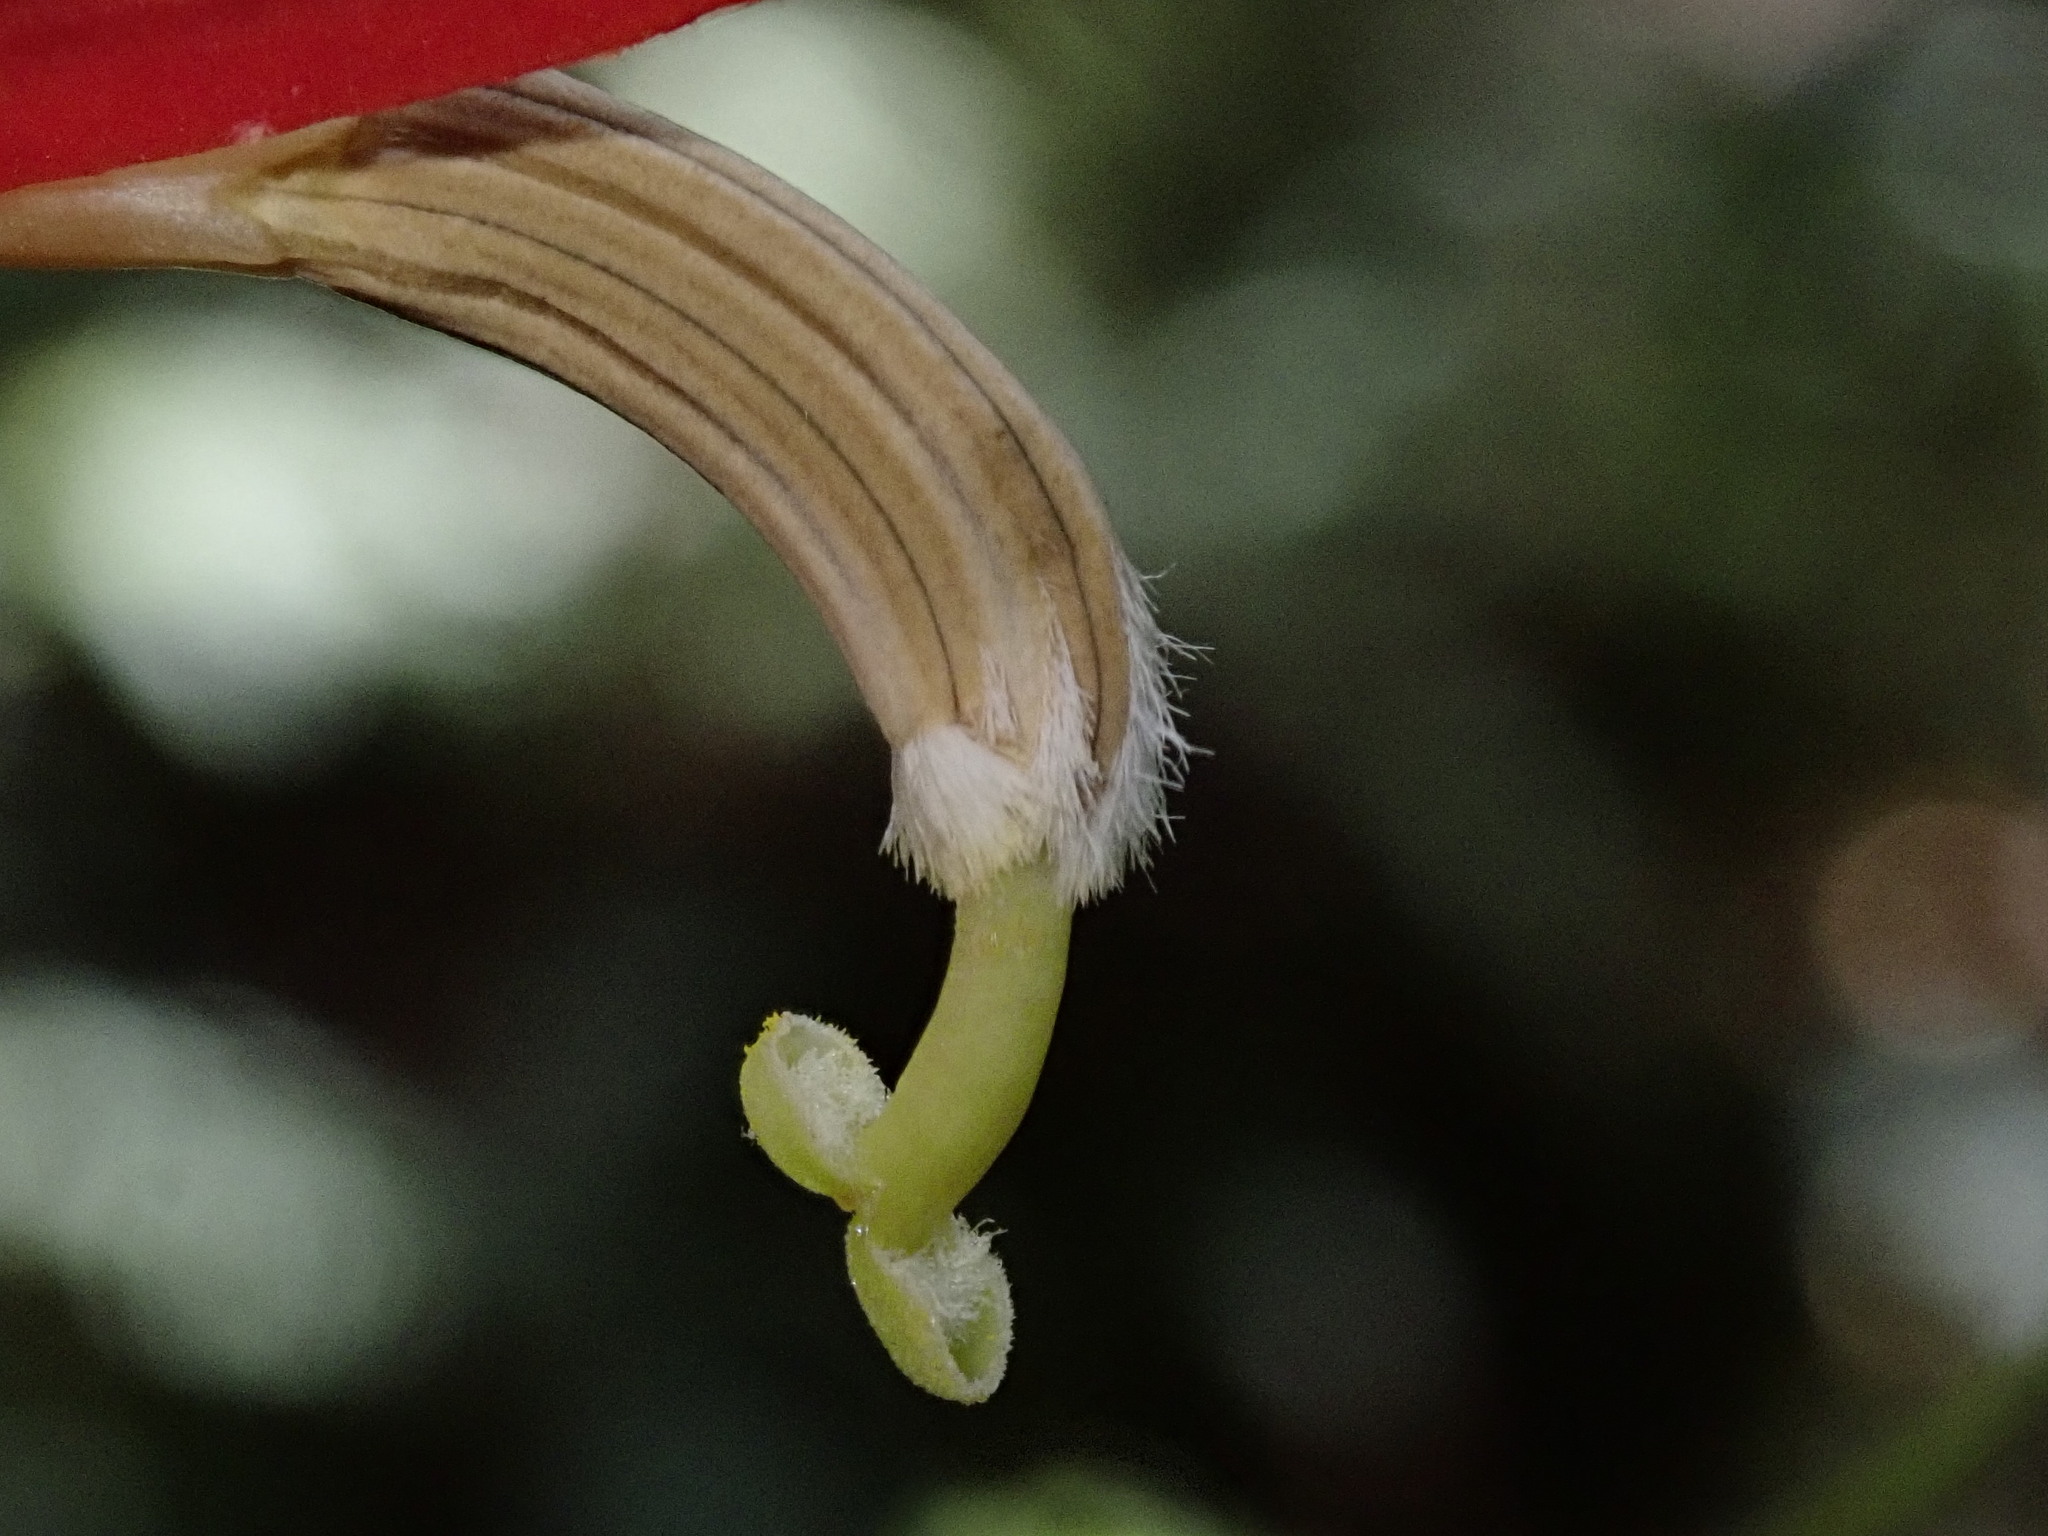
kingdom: Plantae
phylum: Tracheophyta
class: Magnoliopsida
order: Asterales
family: Campanulaceae
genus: Lobelia
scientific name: Lobelia laxiflora
